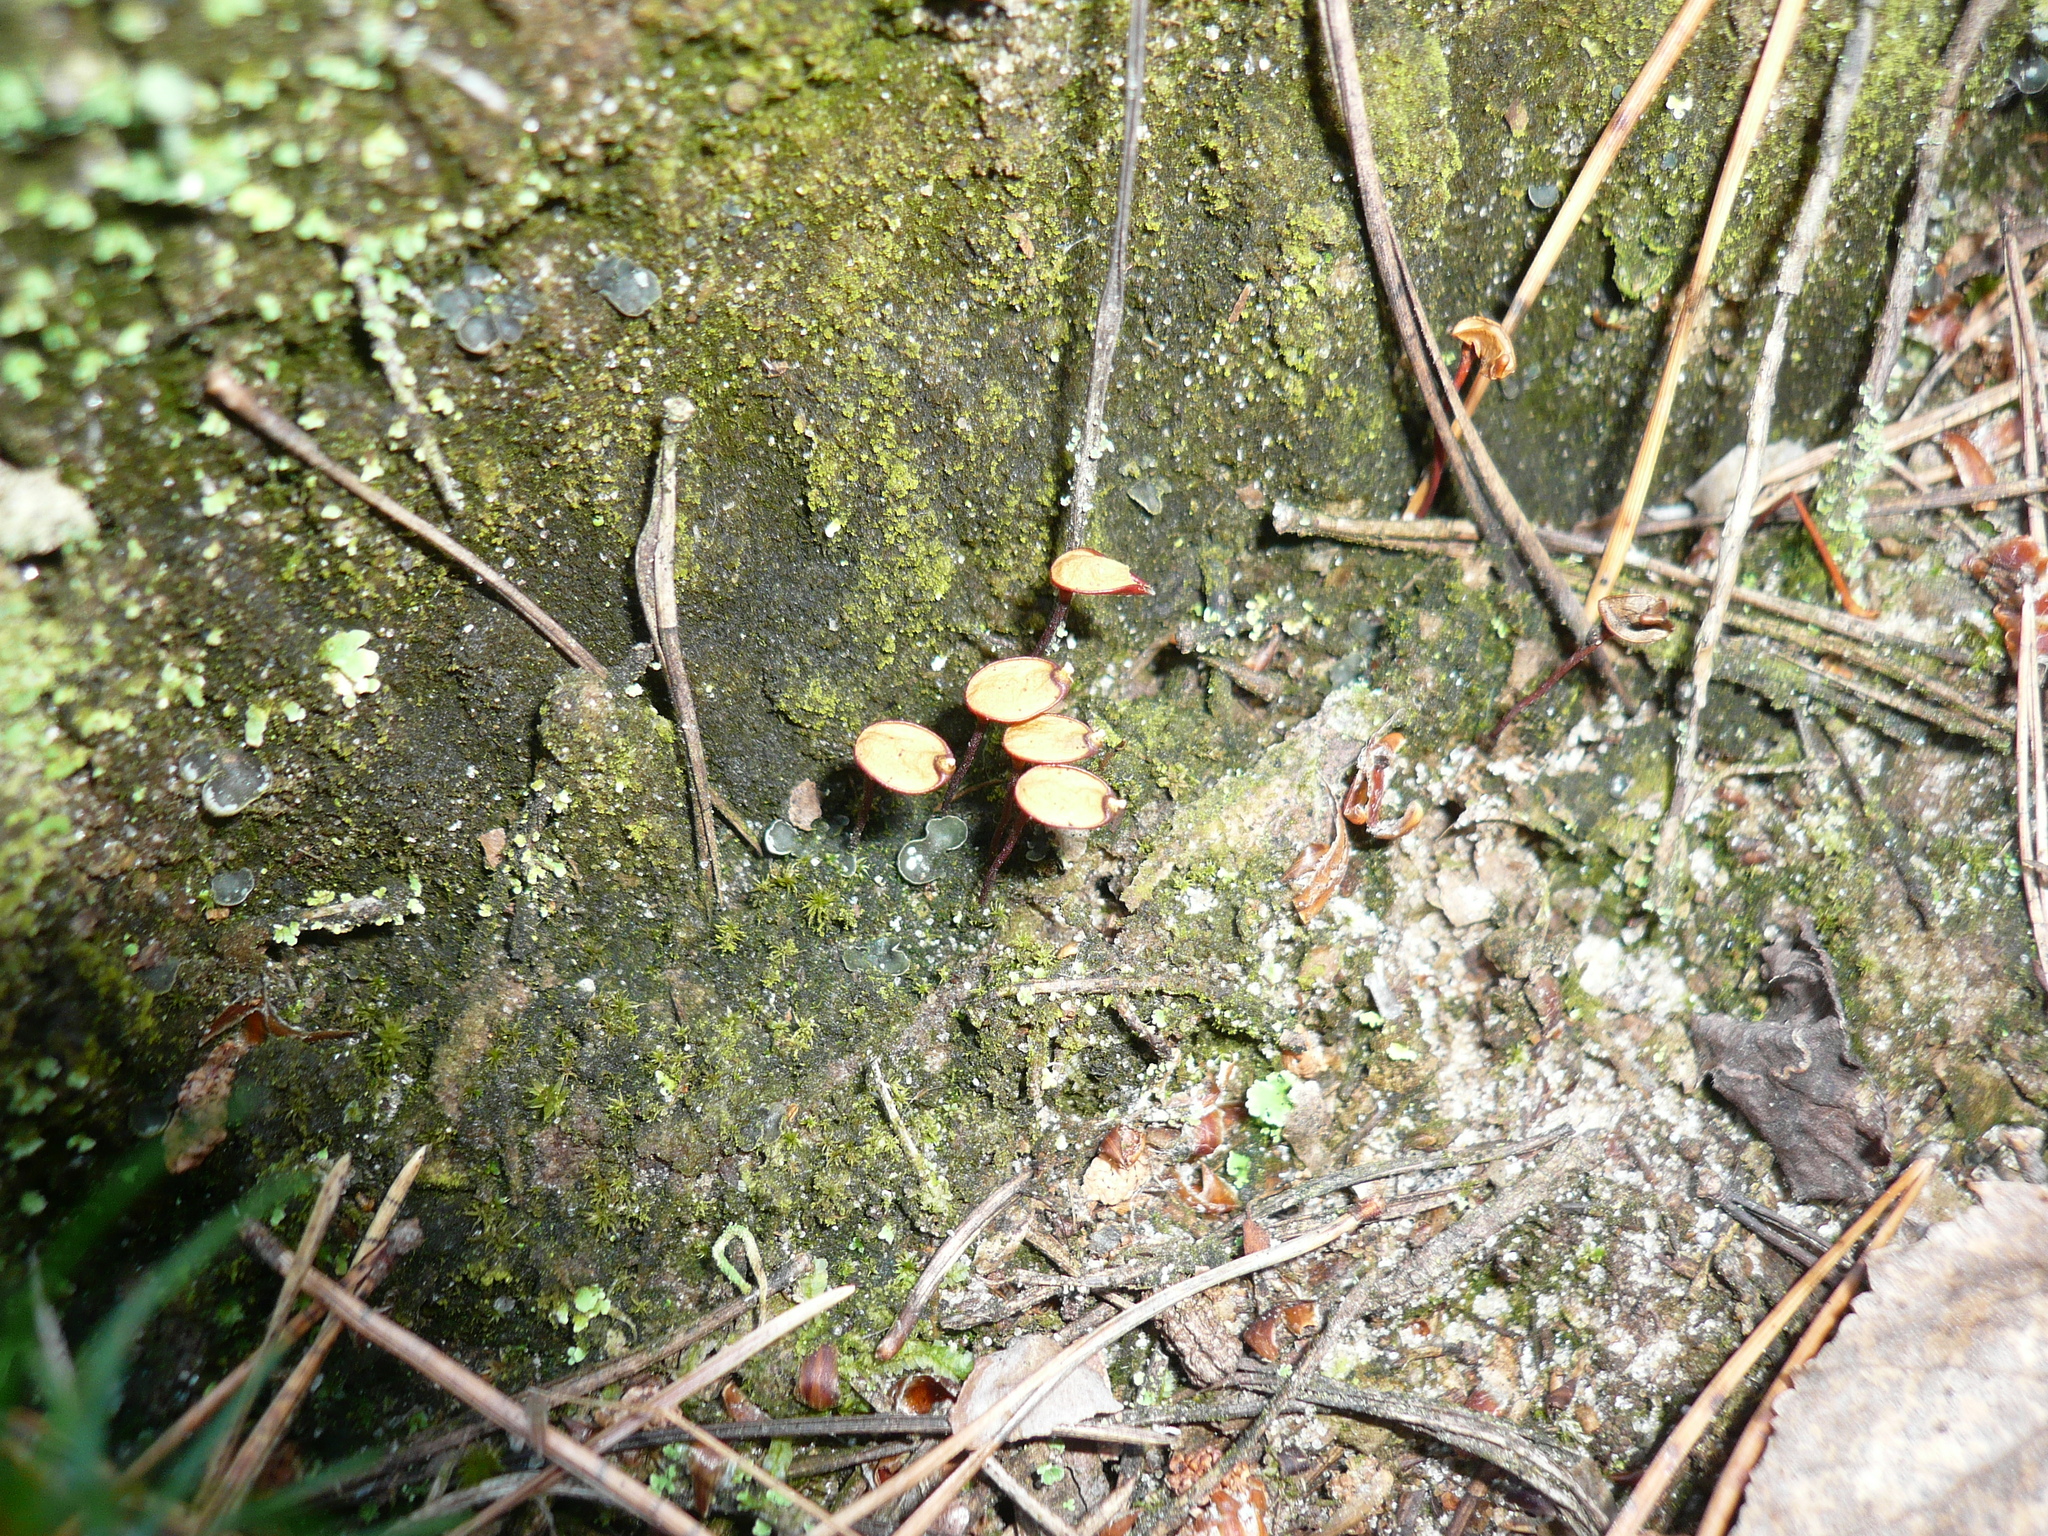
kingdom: Plantae
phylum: Bryophyta
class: Bryopsida
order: Buxbaumiales
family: Buxbaumiaceae
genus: Buxbaumia
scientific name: Buxbaumia aphylla
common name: Brown shield-moss
